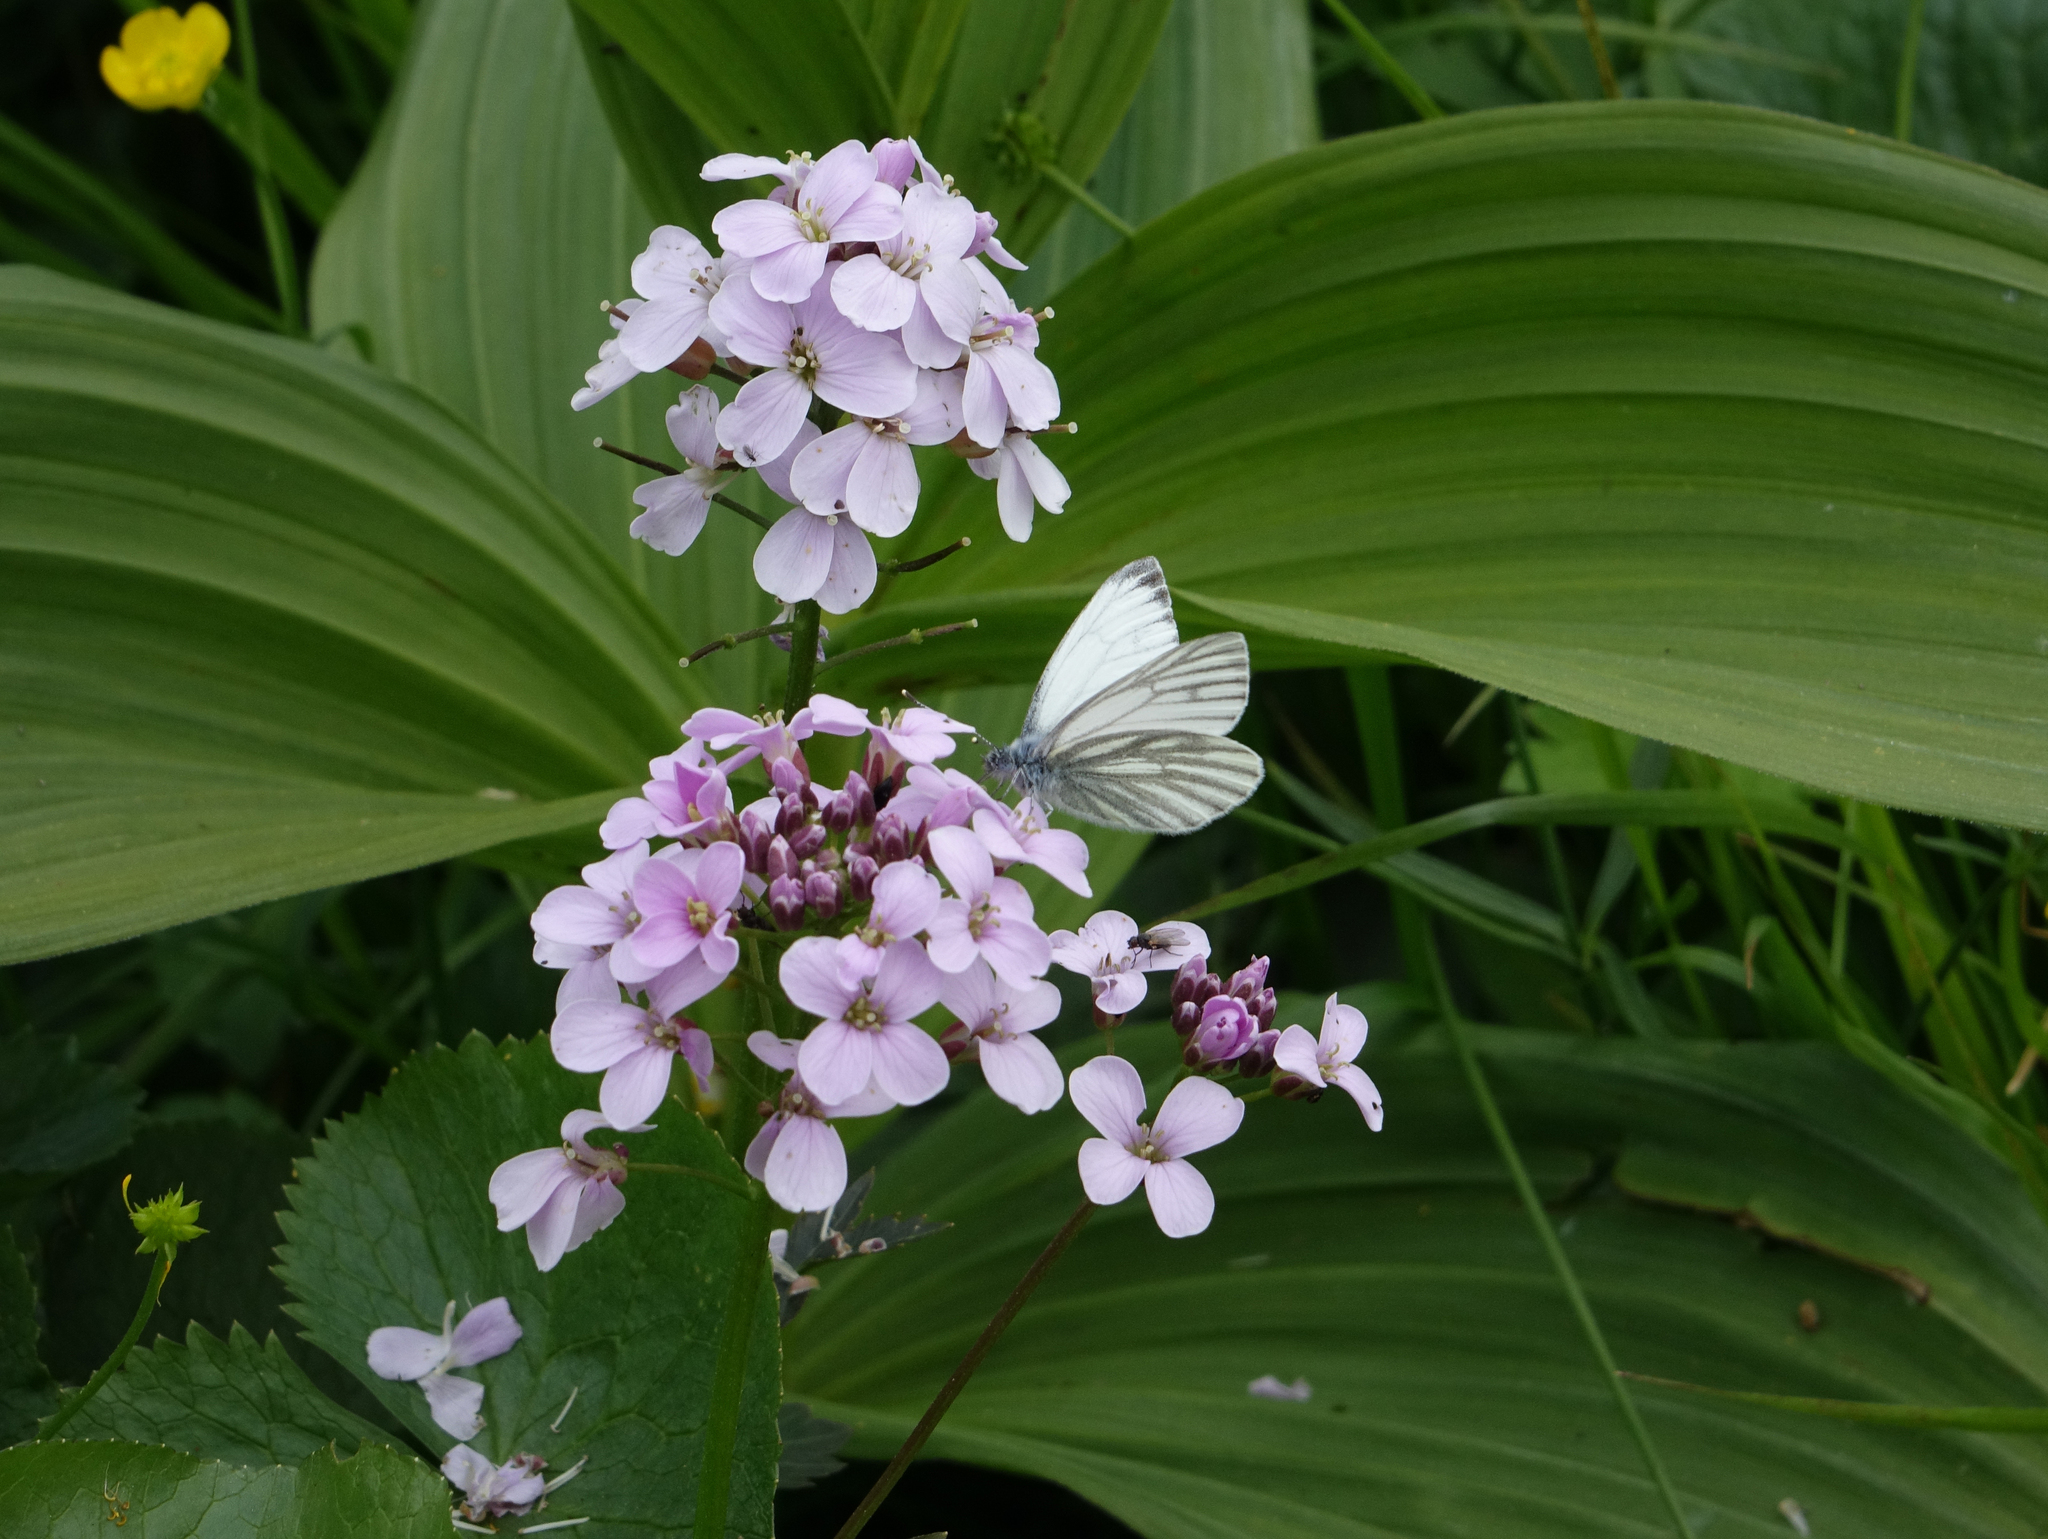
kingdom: Animalia
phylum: Arthropoda
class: Insecta
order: Lepidoptera
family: Pieridae
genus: Pieris
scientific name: Pieris napi
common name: Green-veined white
